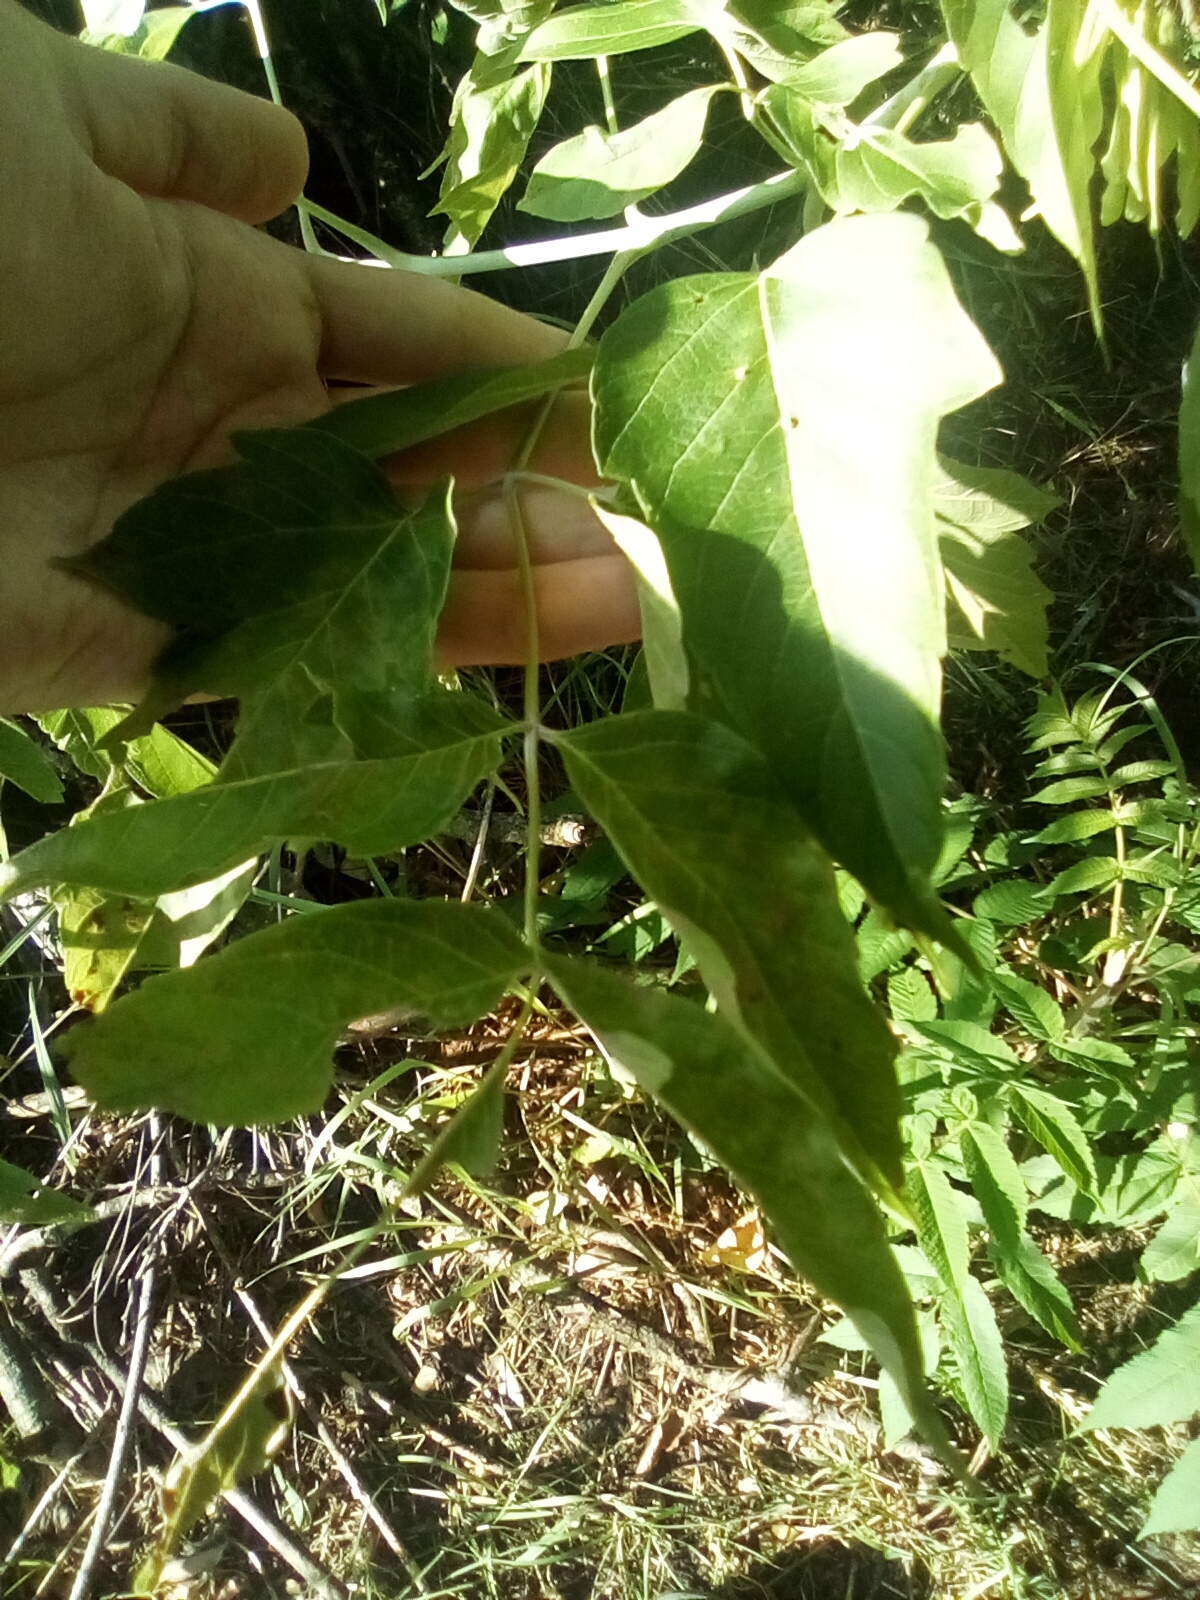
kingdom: Plantae
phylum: Tracheophyta
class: Magnoliopsida
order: Sapindales
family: Sapindaceae
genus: Acer
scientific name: Acer negundo
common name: Ashleaf maple
